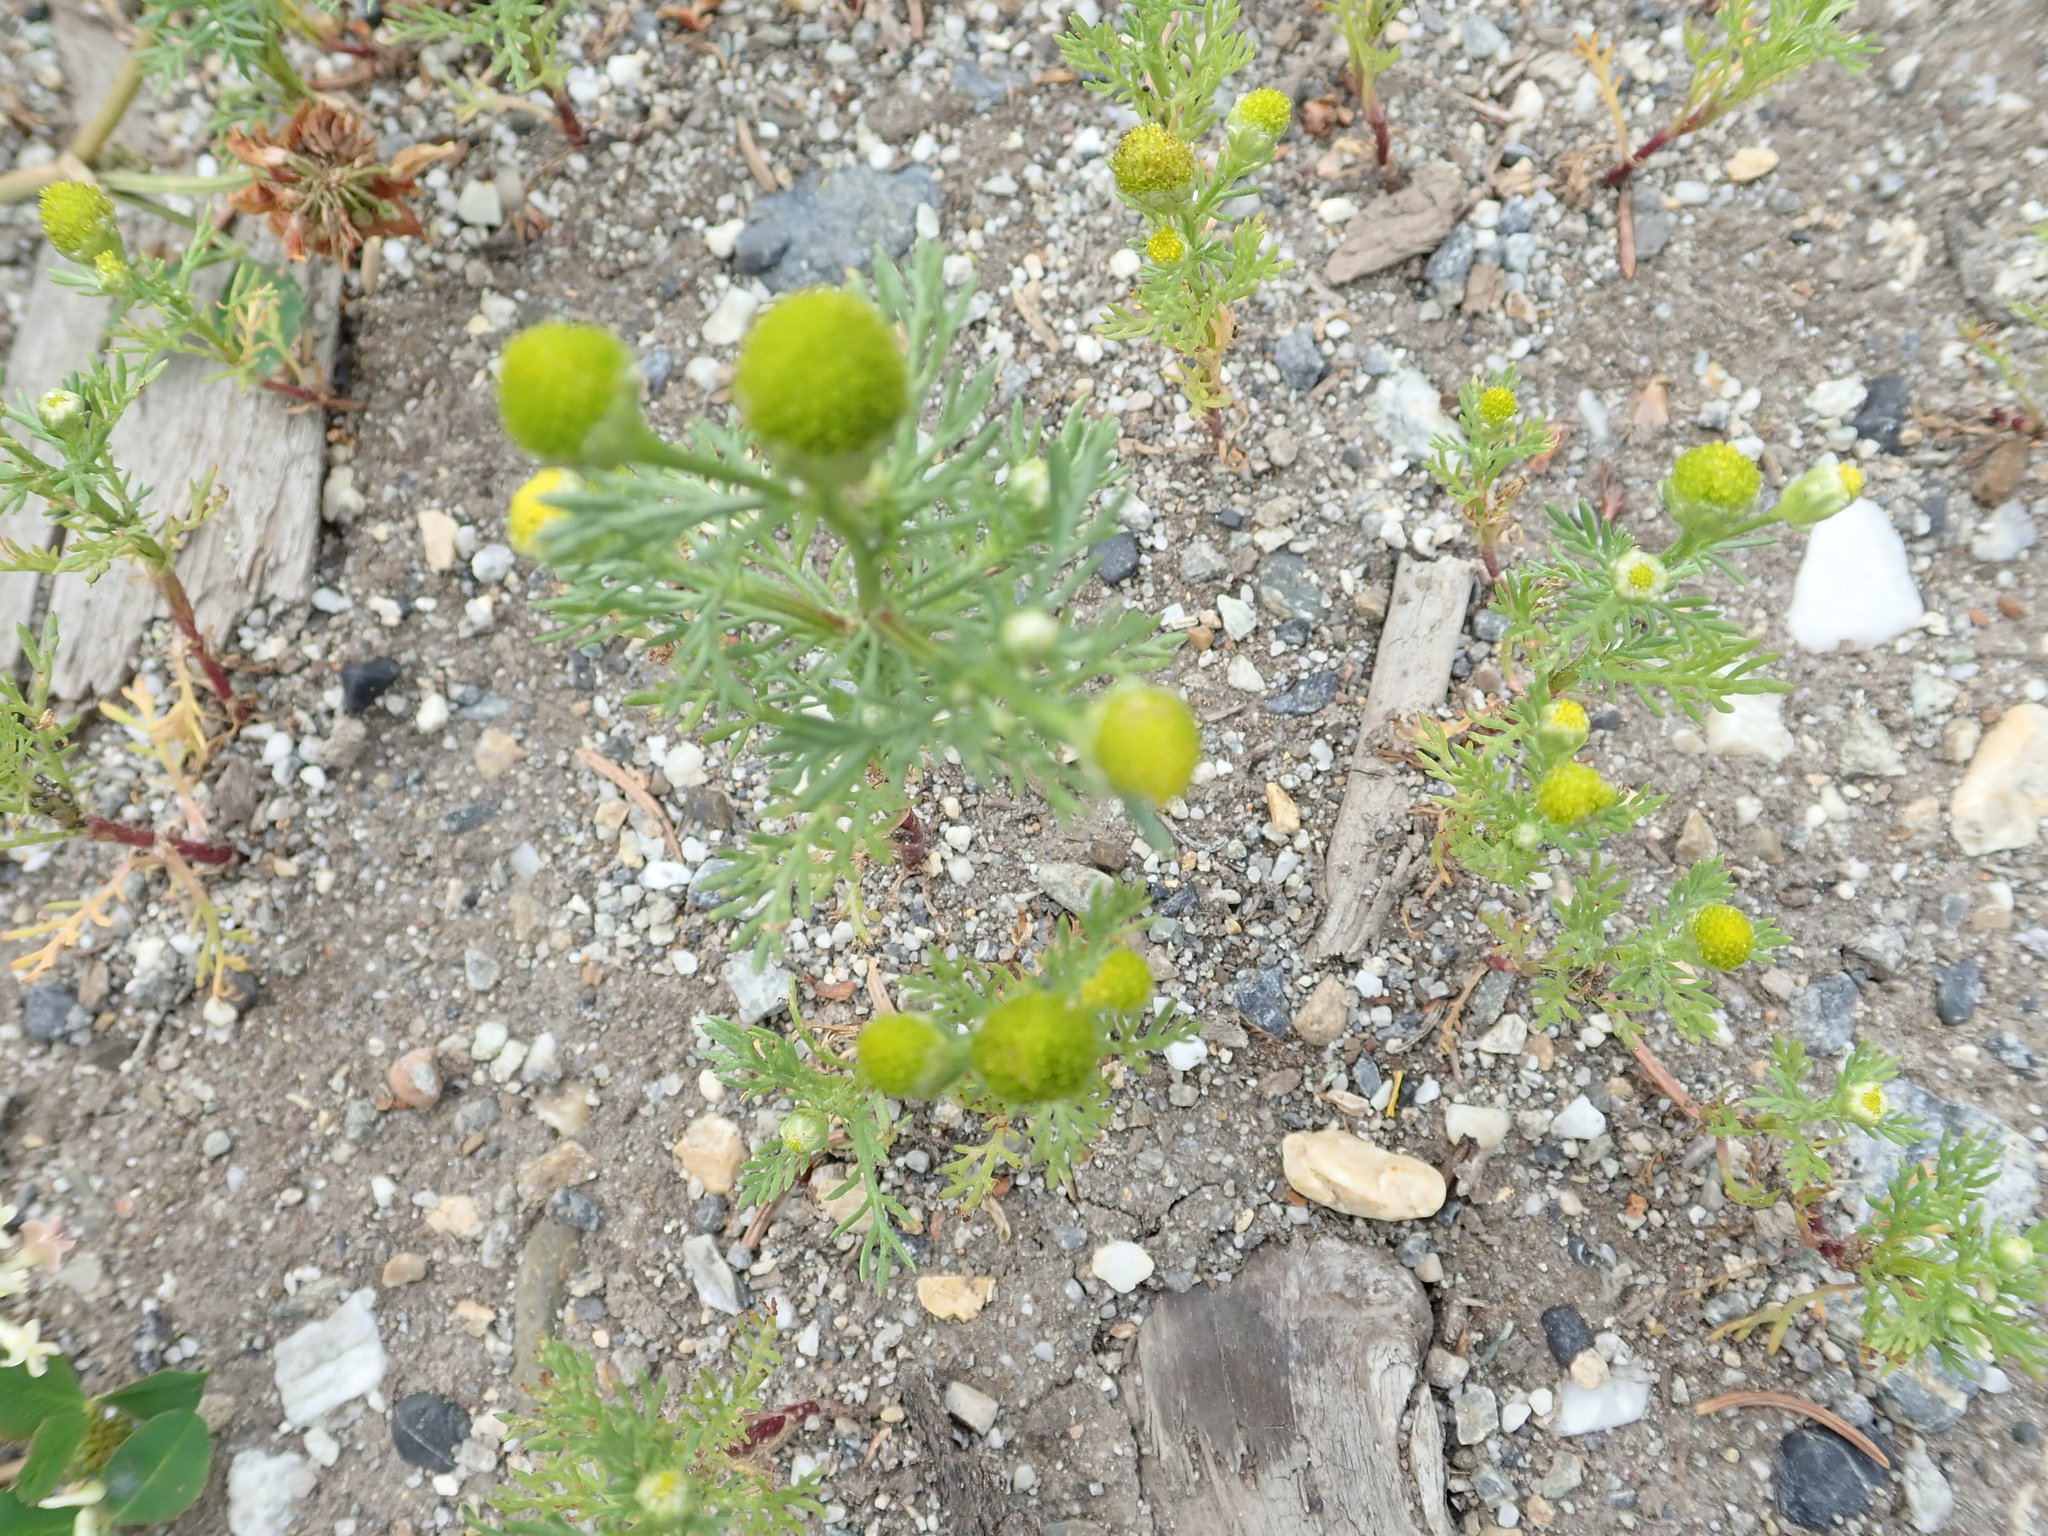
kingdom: Plantae
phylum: Tracheophyta
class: Magnoliopsida
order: Asterales
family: Asteraceae
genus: Matricaria
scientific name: Matricaria discoidea
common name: Disc mayweed
